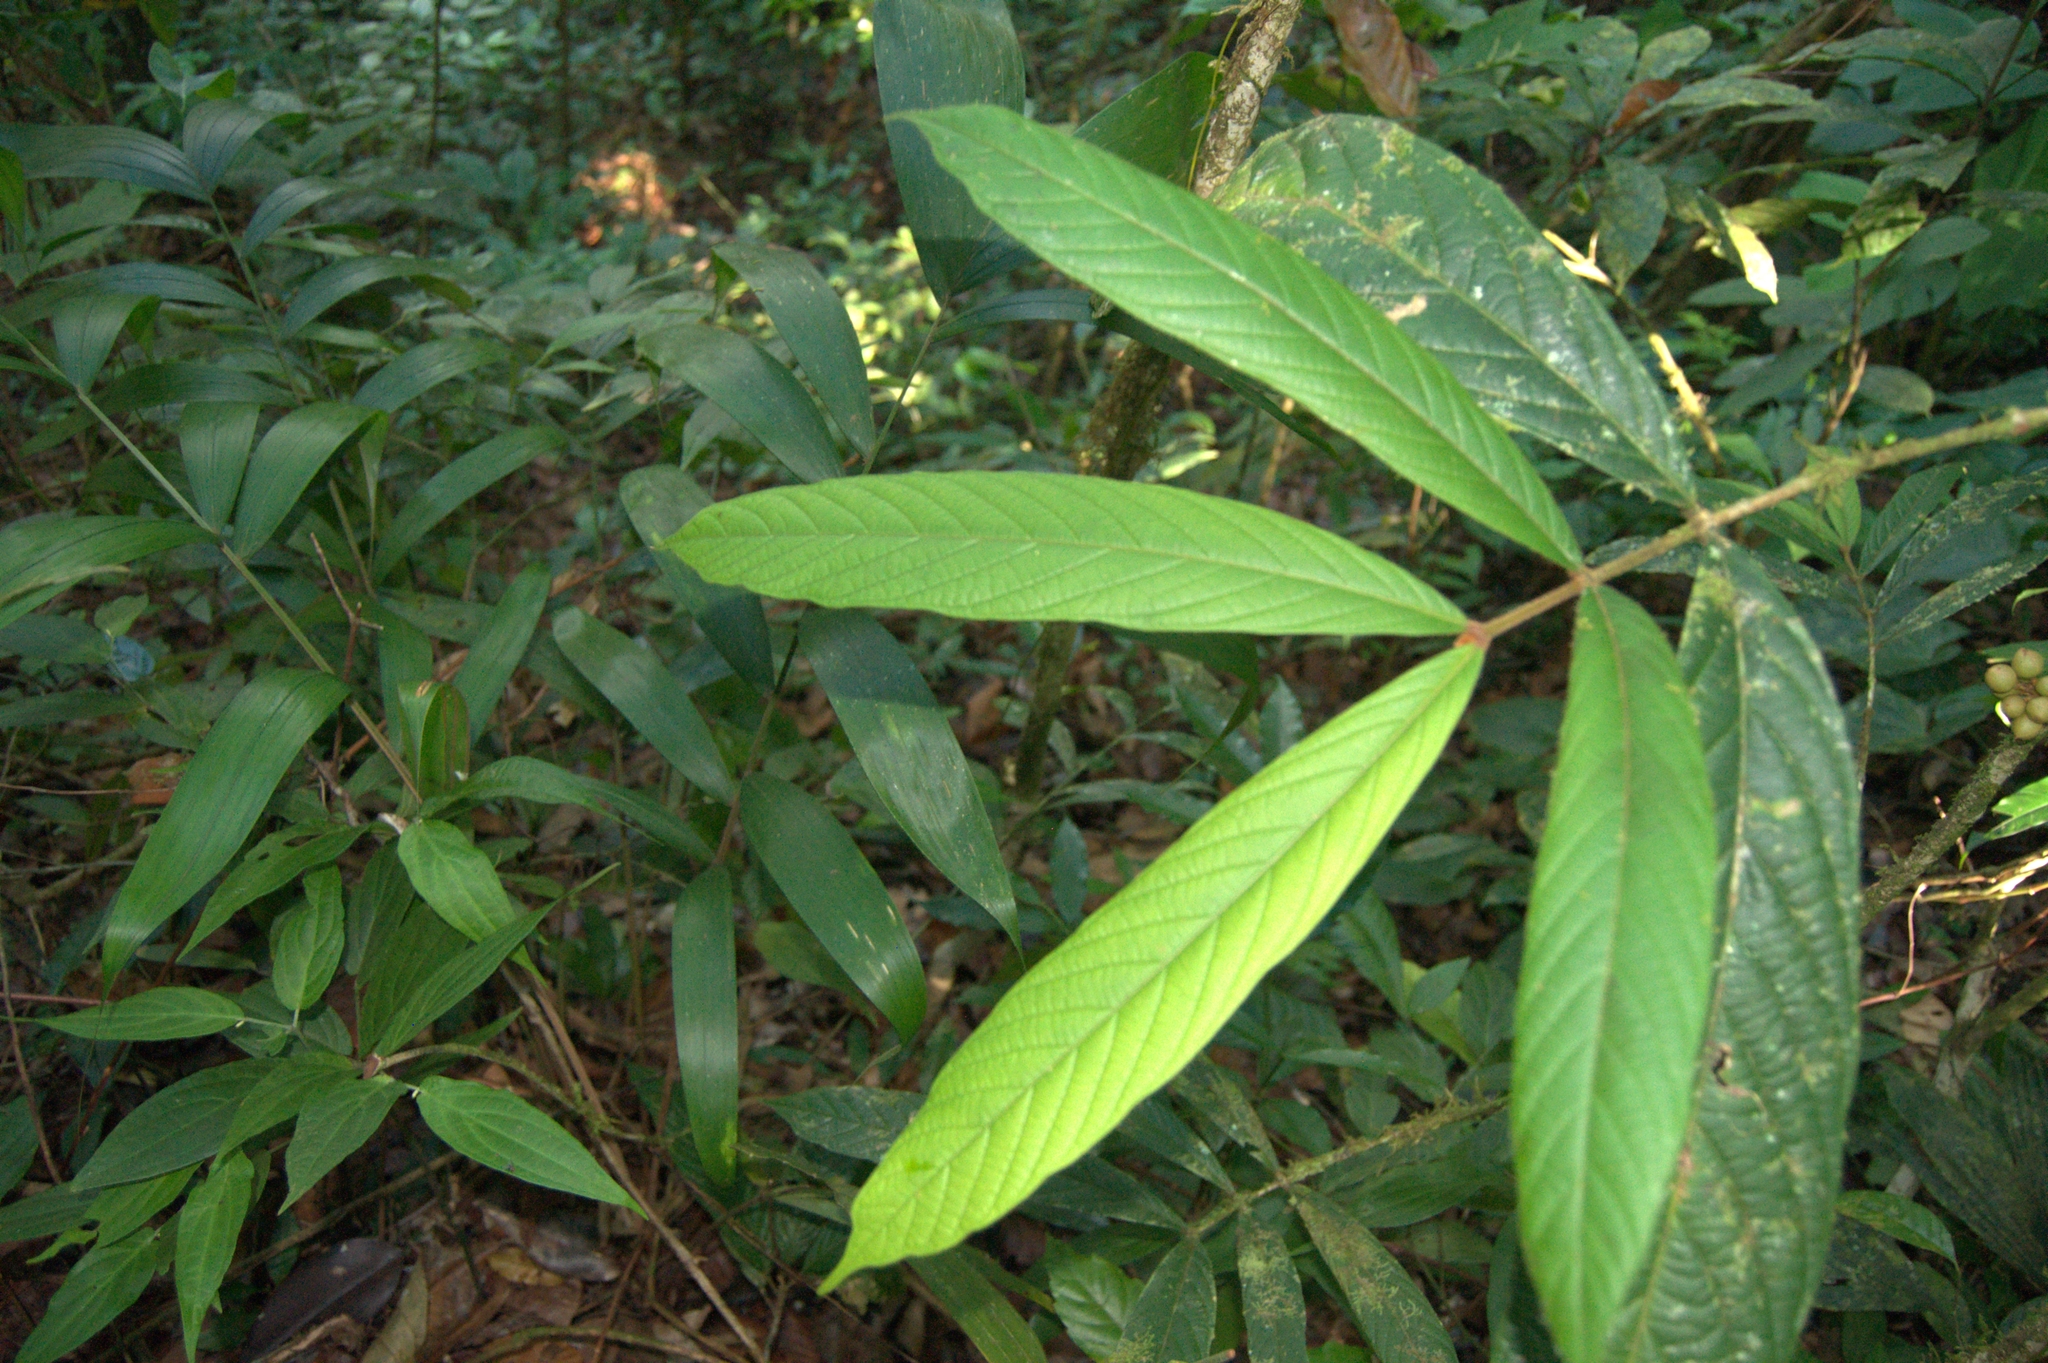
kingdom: Plantae
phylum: Tracheophyta
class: Magnoliopsida
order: Sapindales
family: Meliaceae
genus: Guarea
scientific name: Guarea glabra
